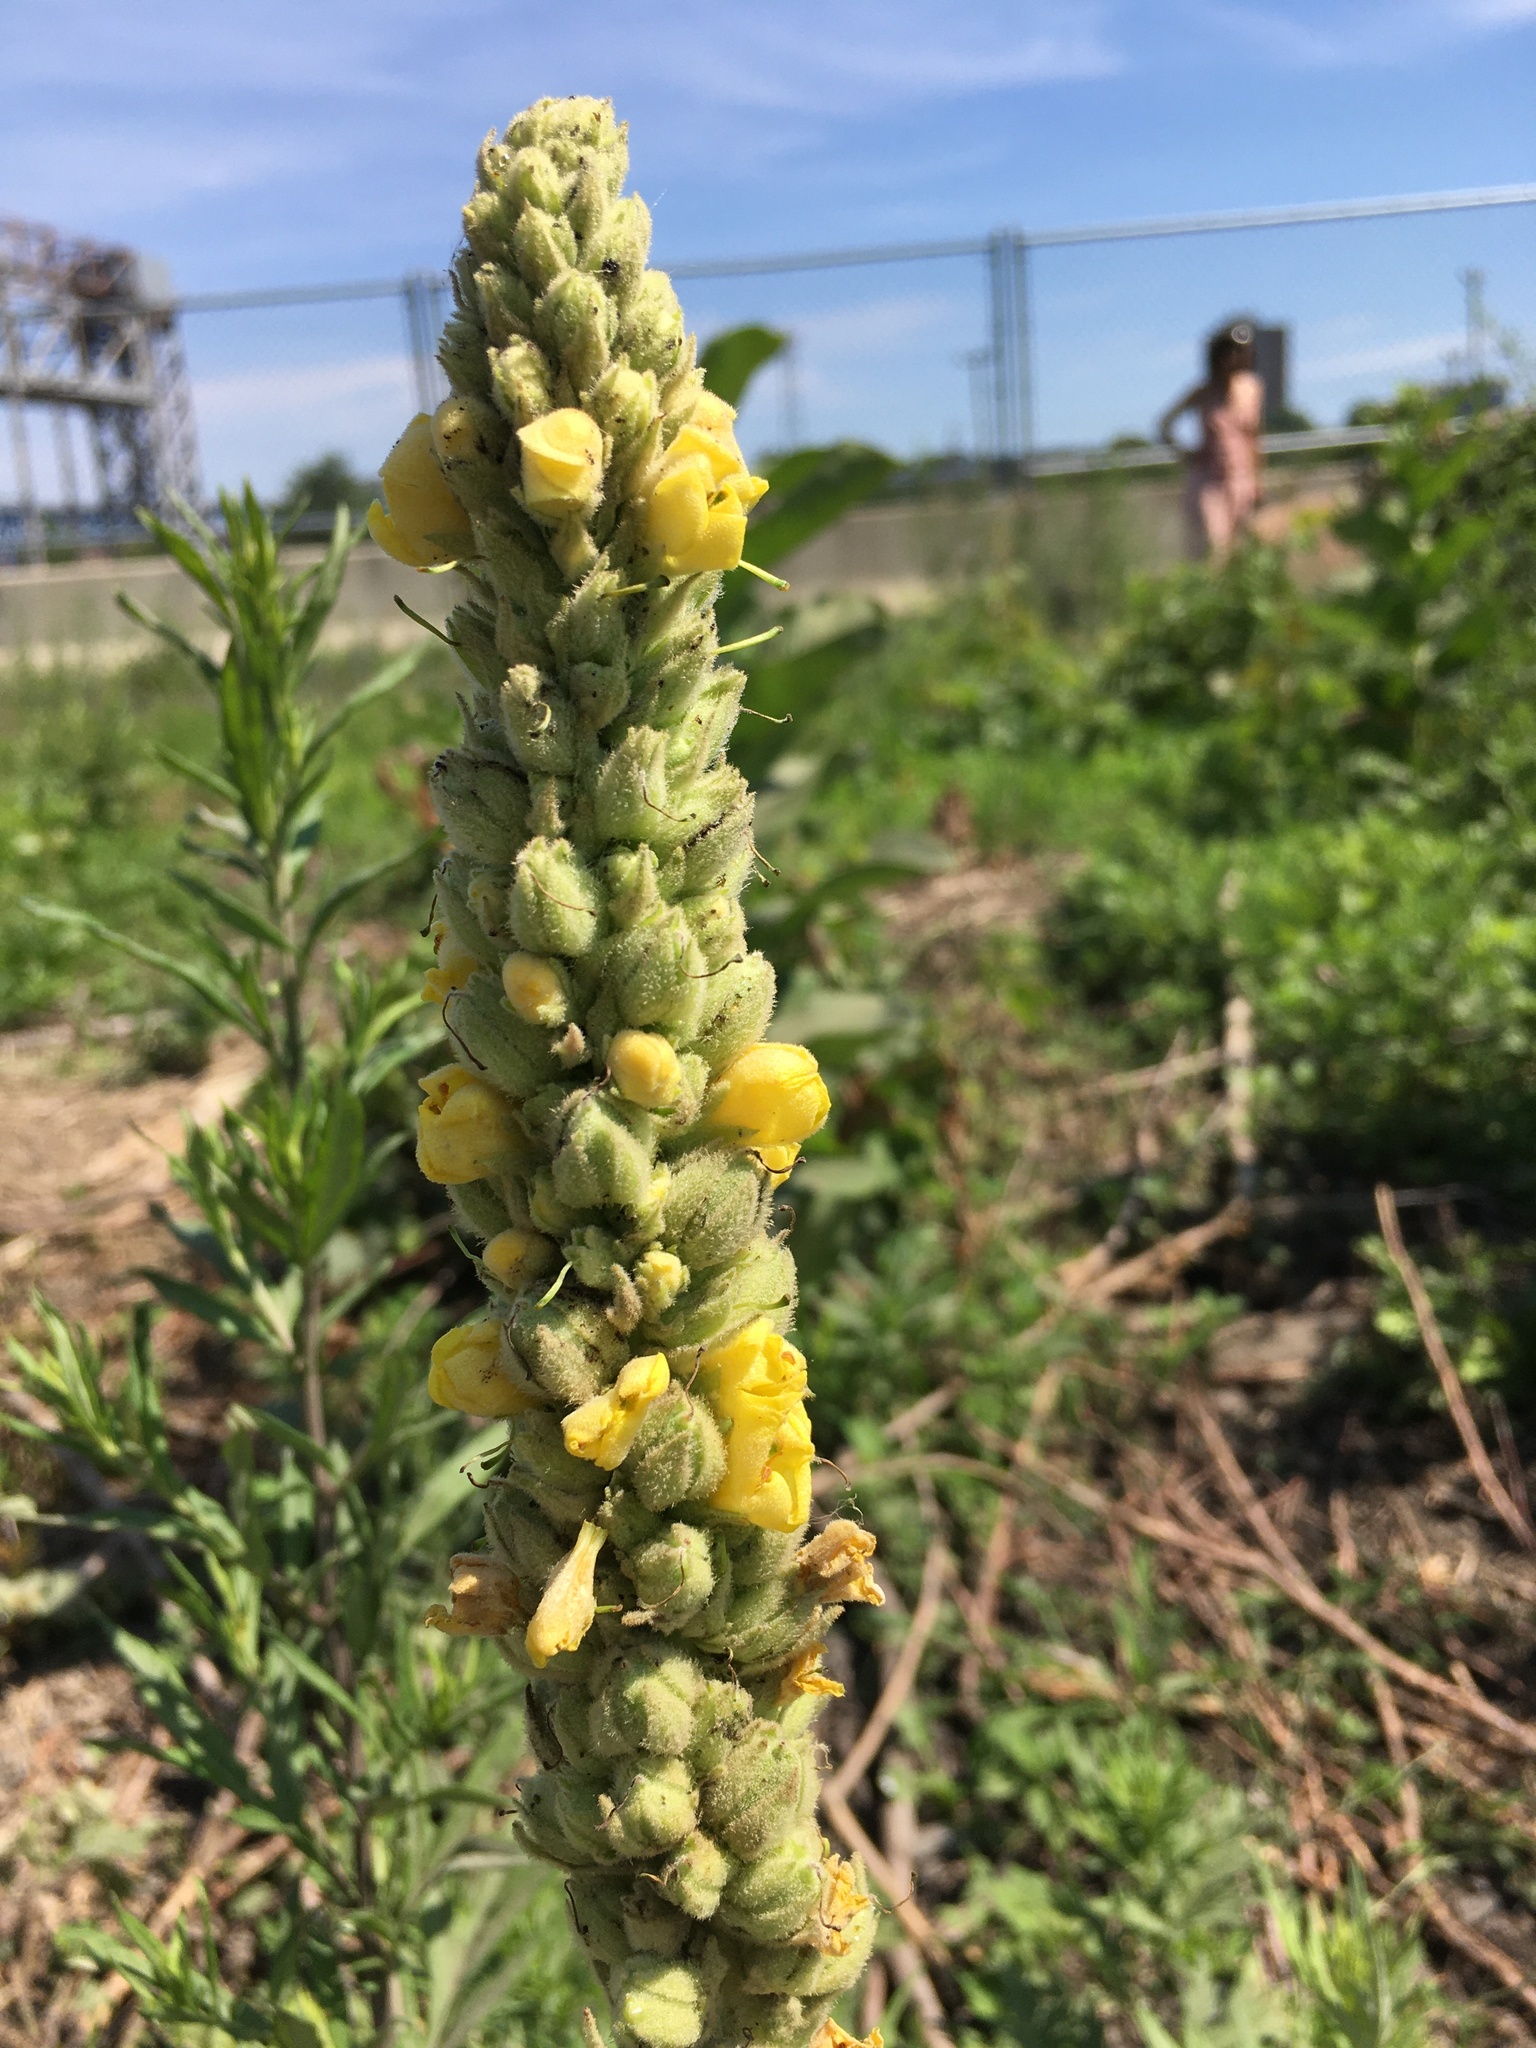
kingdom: Plantae
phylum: Tracheophyta
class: Magnoliopsida
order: Lamiales
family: Scrophulariaceae
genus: Verbascum
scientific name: Verbascum thapsus
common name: Common mullein
